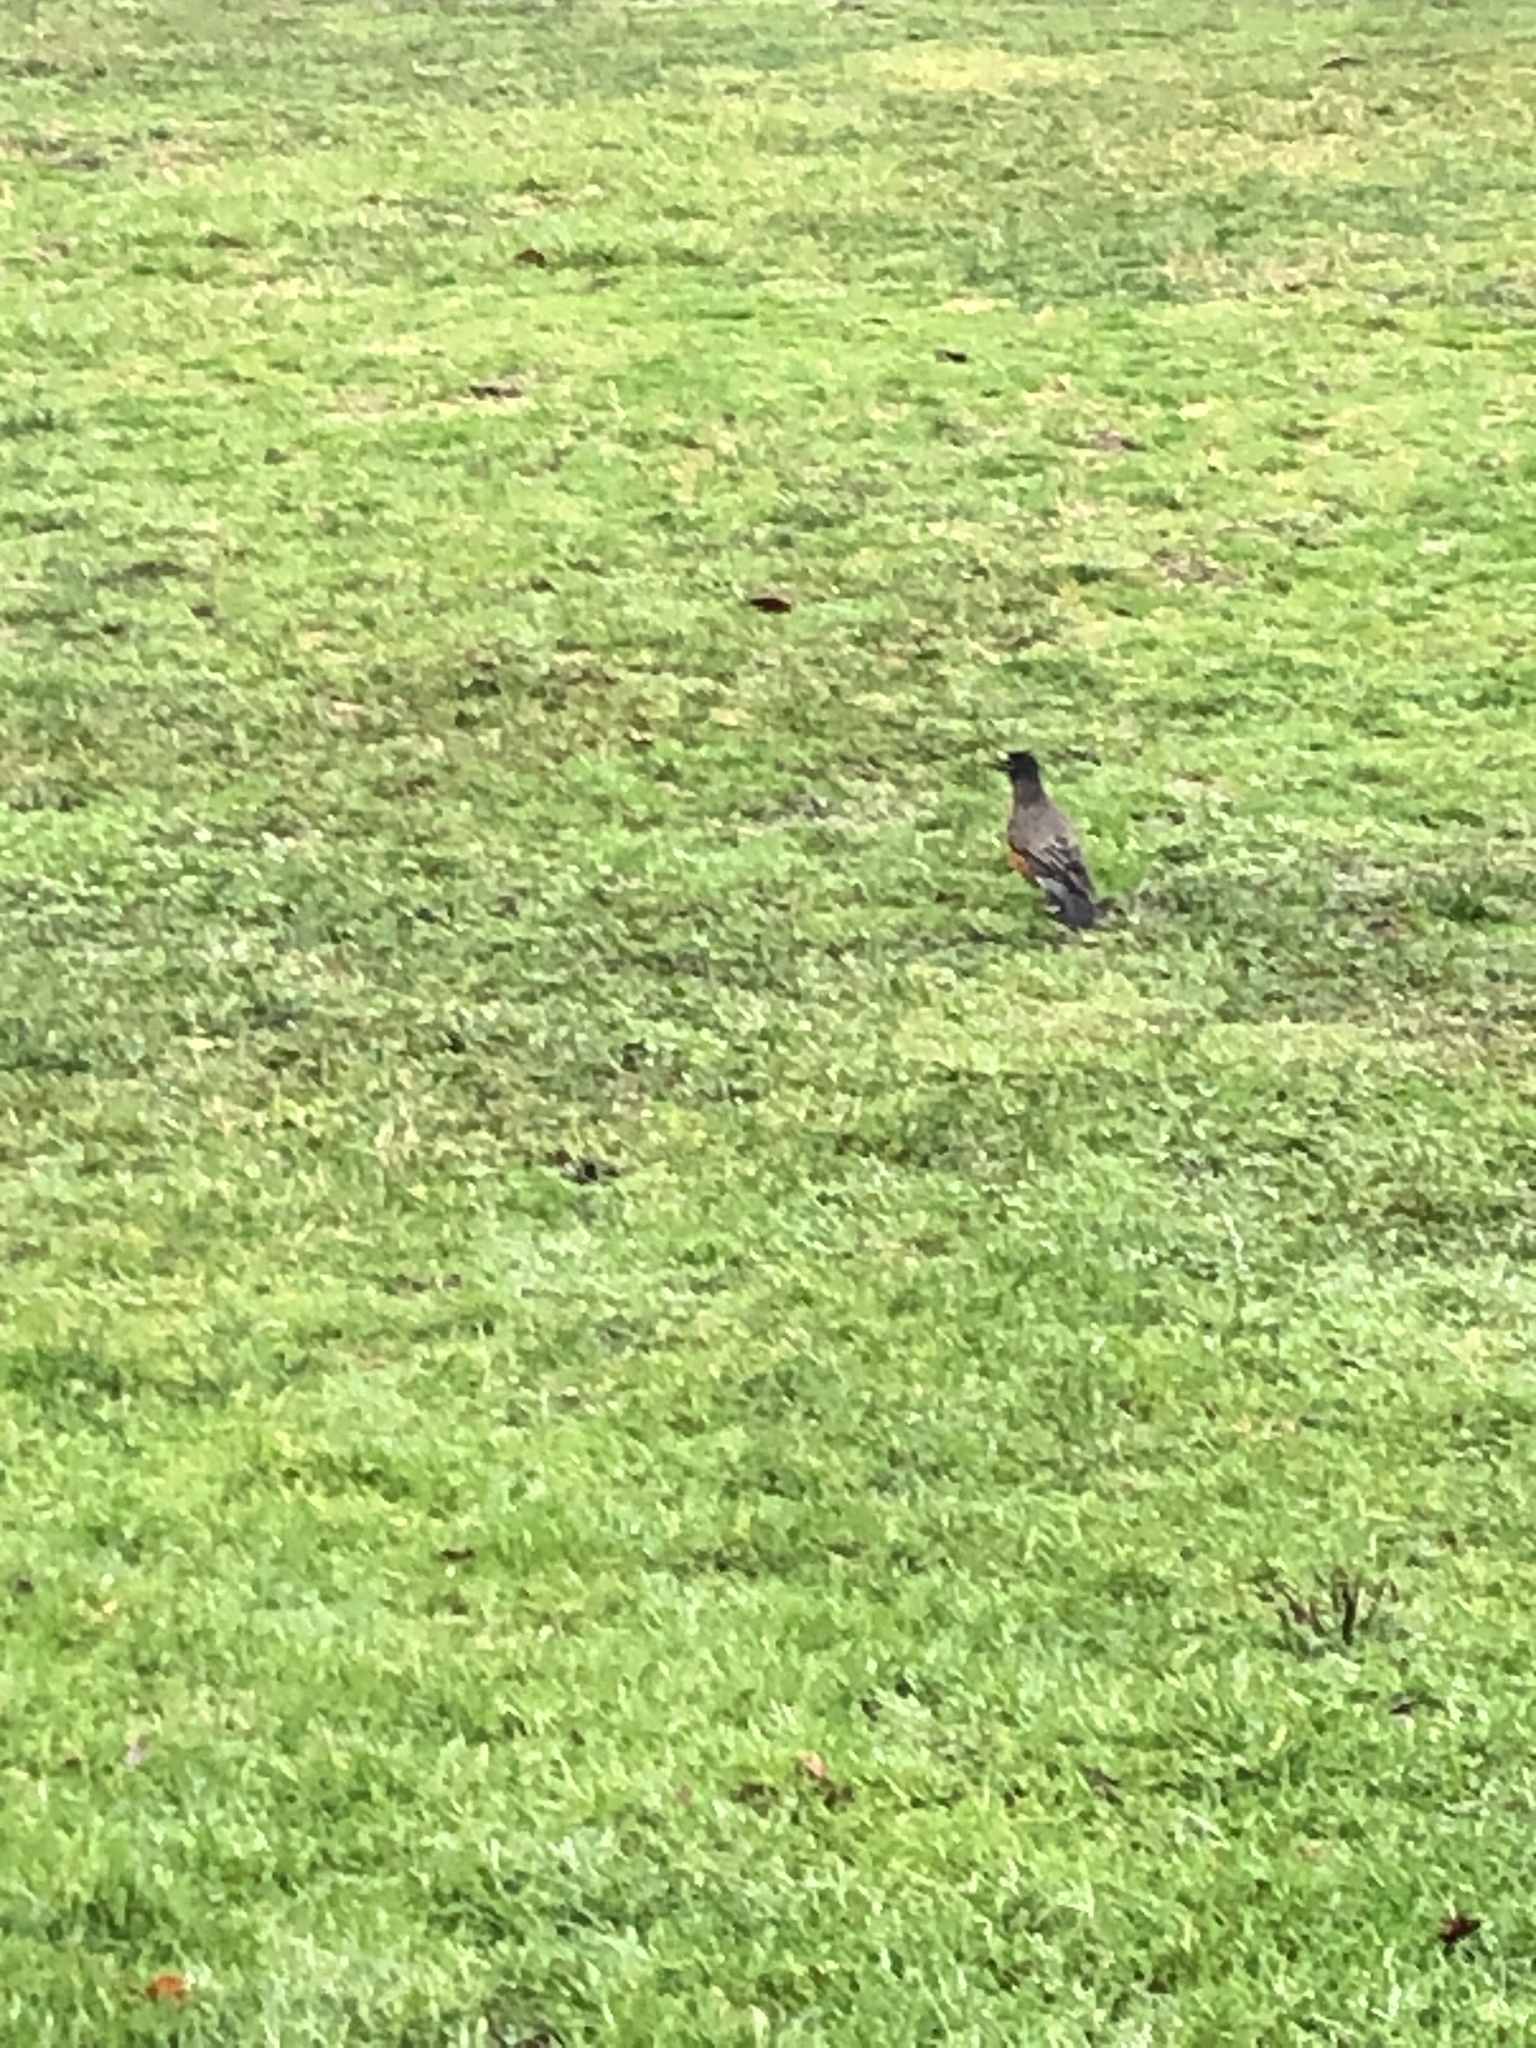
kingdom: Animalia
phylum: Chordata
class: Aves
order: Passeriformes
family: Turdidae
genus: Turdus
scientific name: Turdus migratorius
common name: American robin
